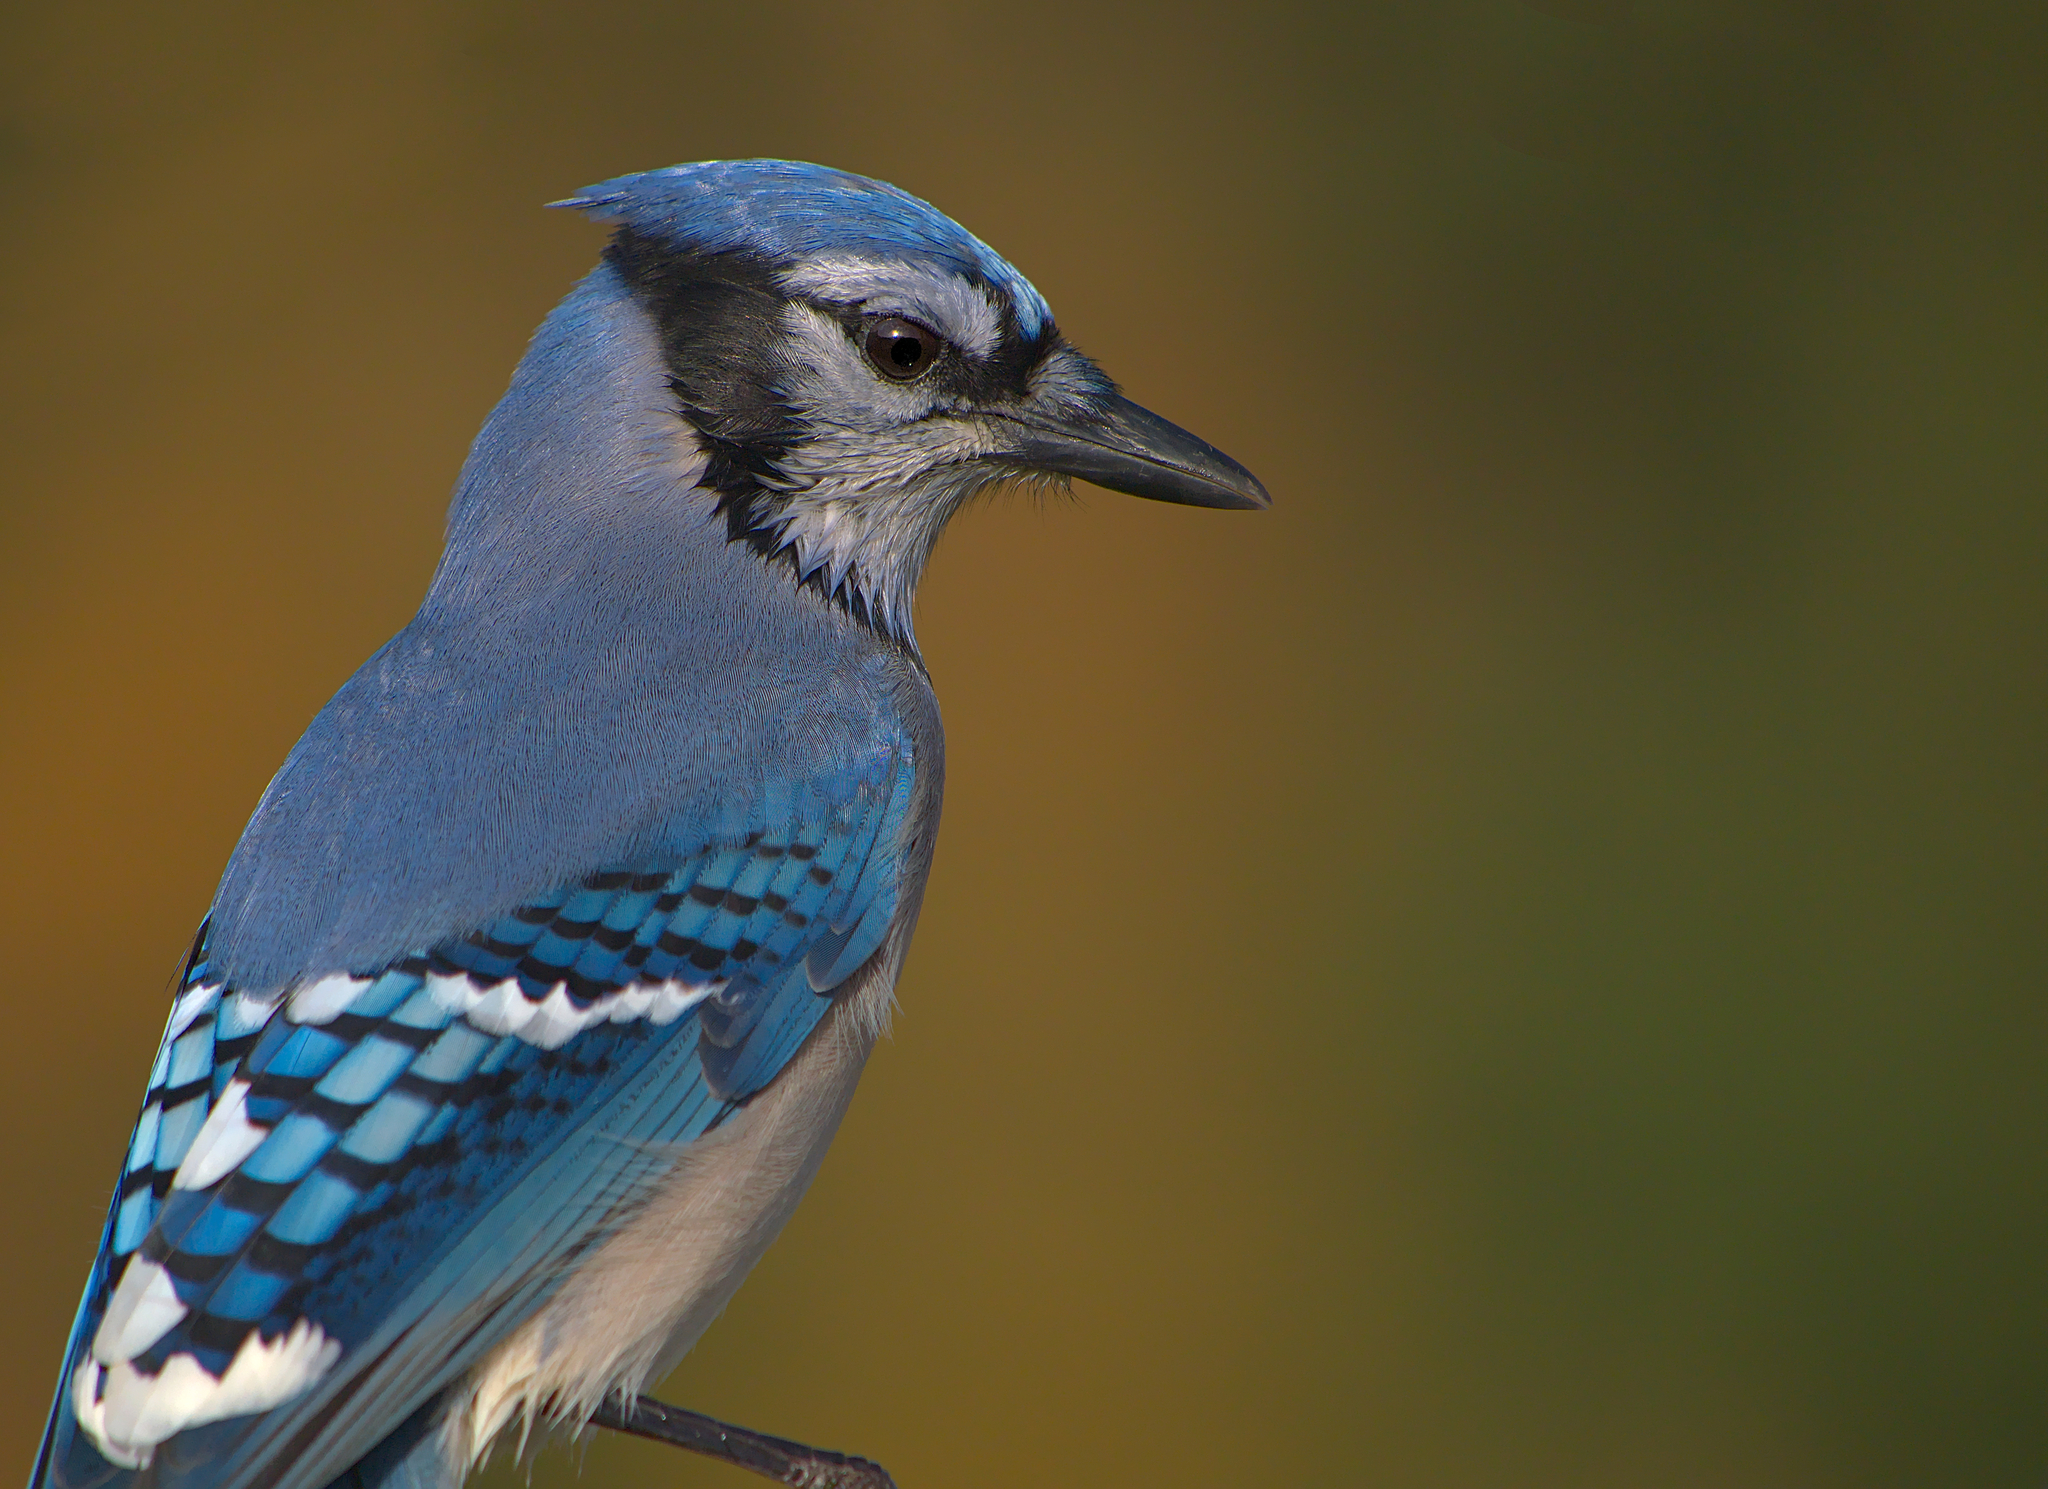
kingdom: Animalia
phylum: Chordata
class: Aves
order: Passeriformes
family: Corvidae
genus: Cyanocitta
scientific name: Cyanocitta cristata
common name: Blue jay
